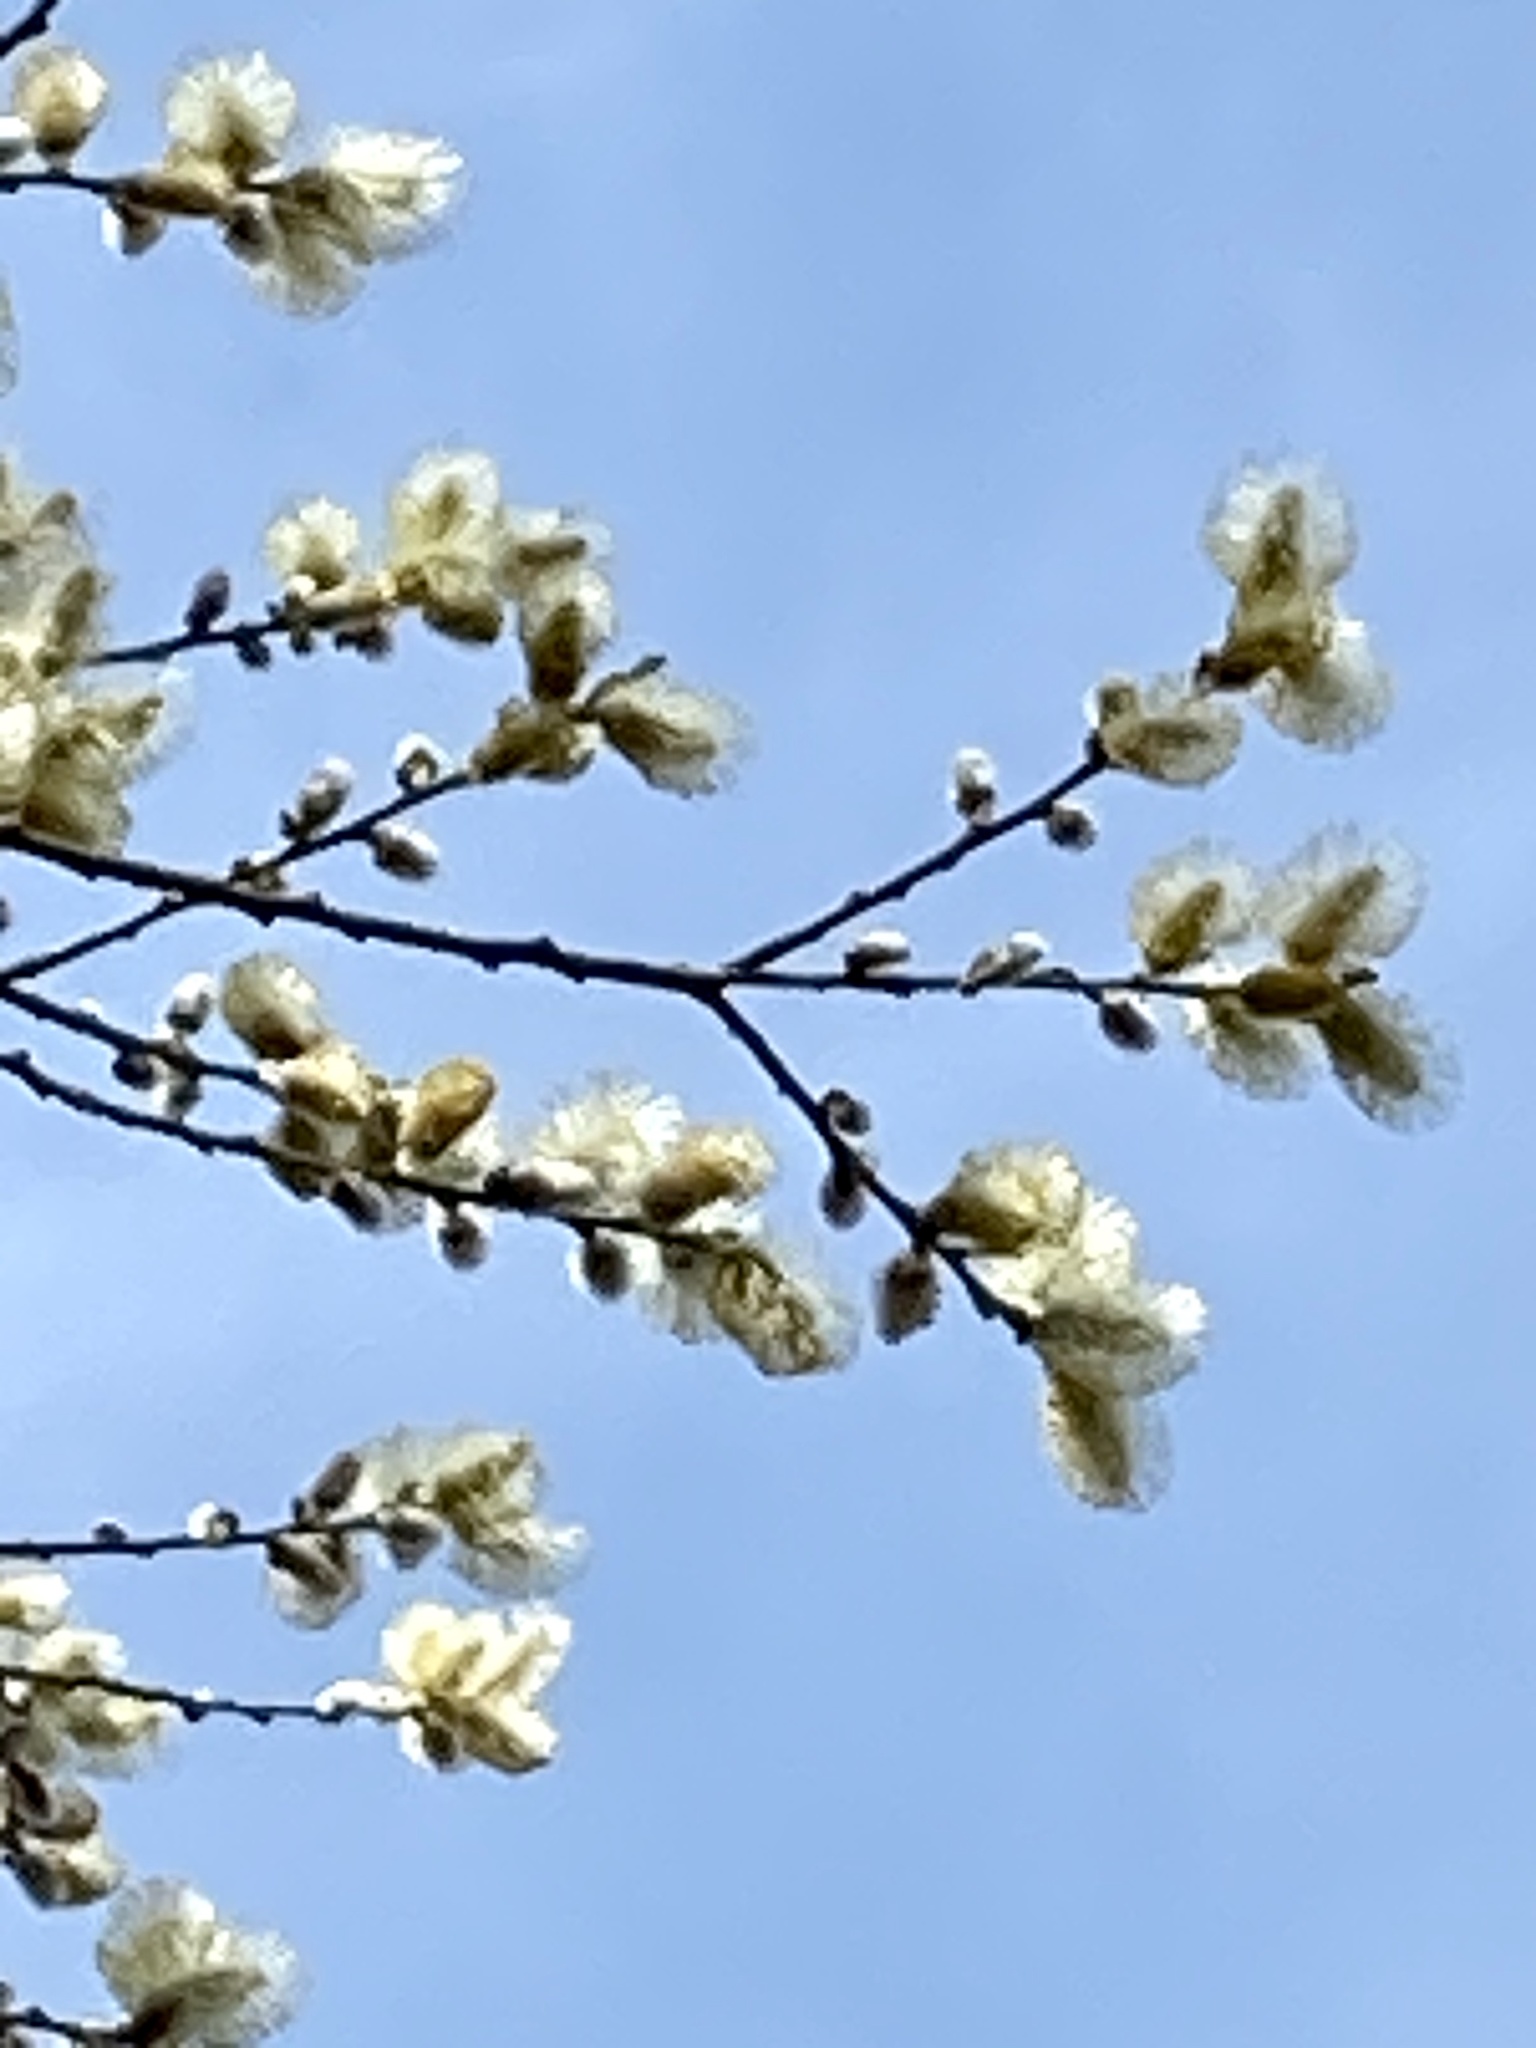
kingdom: Plantae
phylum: Tracheophyta
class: Magnoliopsida
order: Malpighiales
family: Salicaceae
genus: Salix
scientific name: Salix discolor
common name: Glaucous willow
